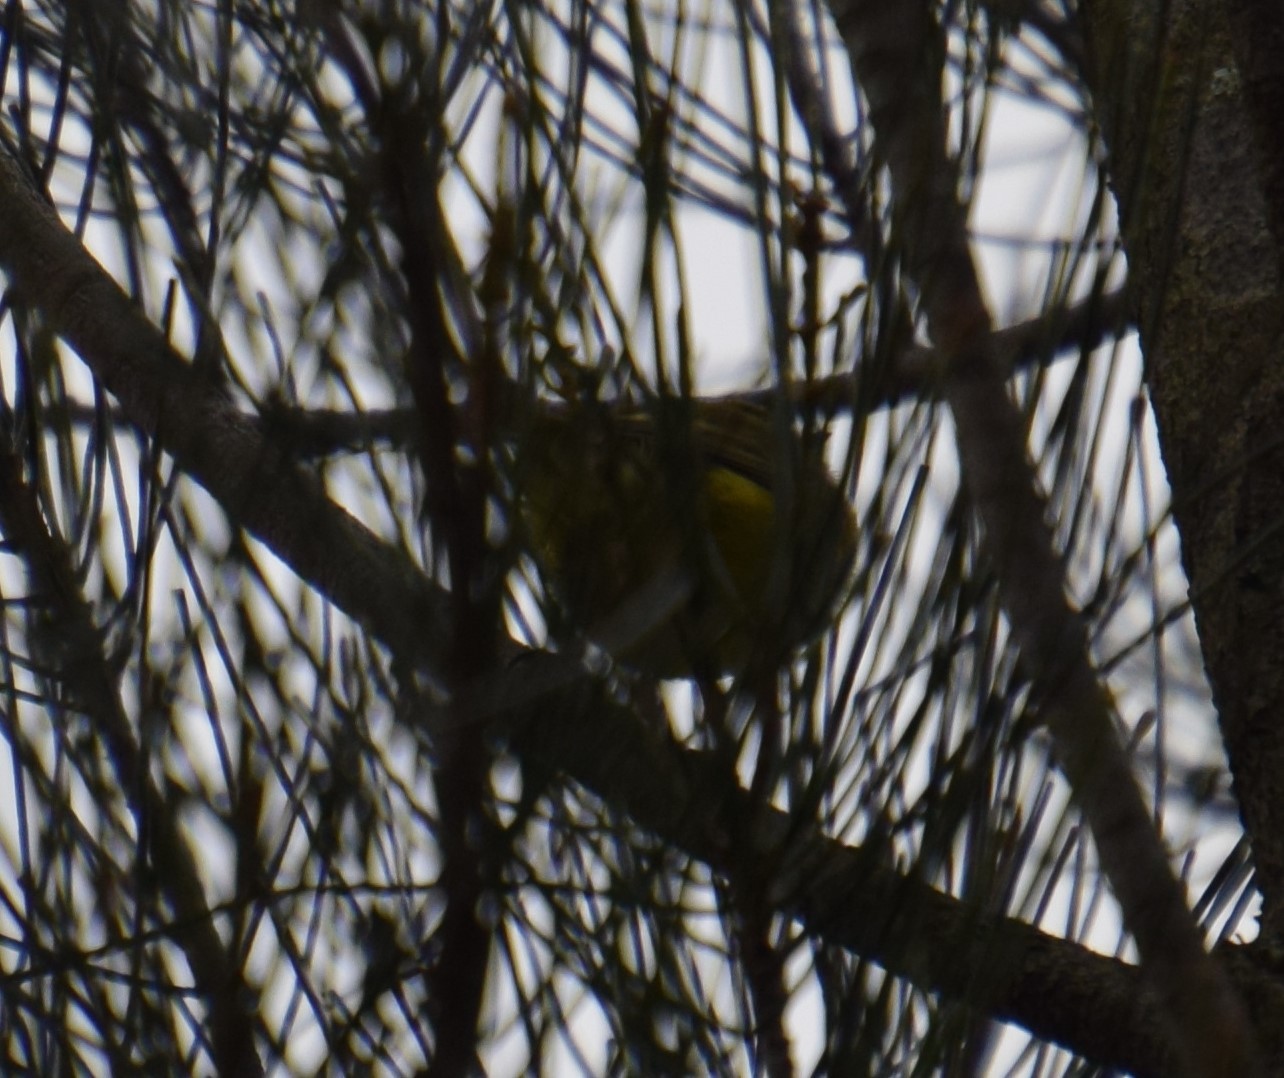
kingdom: Animalia
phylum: Chordata
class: Aves
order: Passeriformes
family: Acanthizidae
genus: Acanthiza
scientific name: Acanthiza nana
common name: Yellow thornbill
